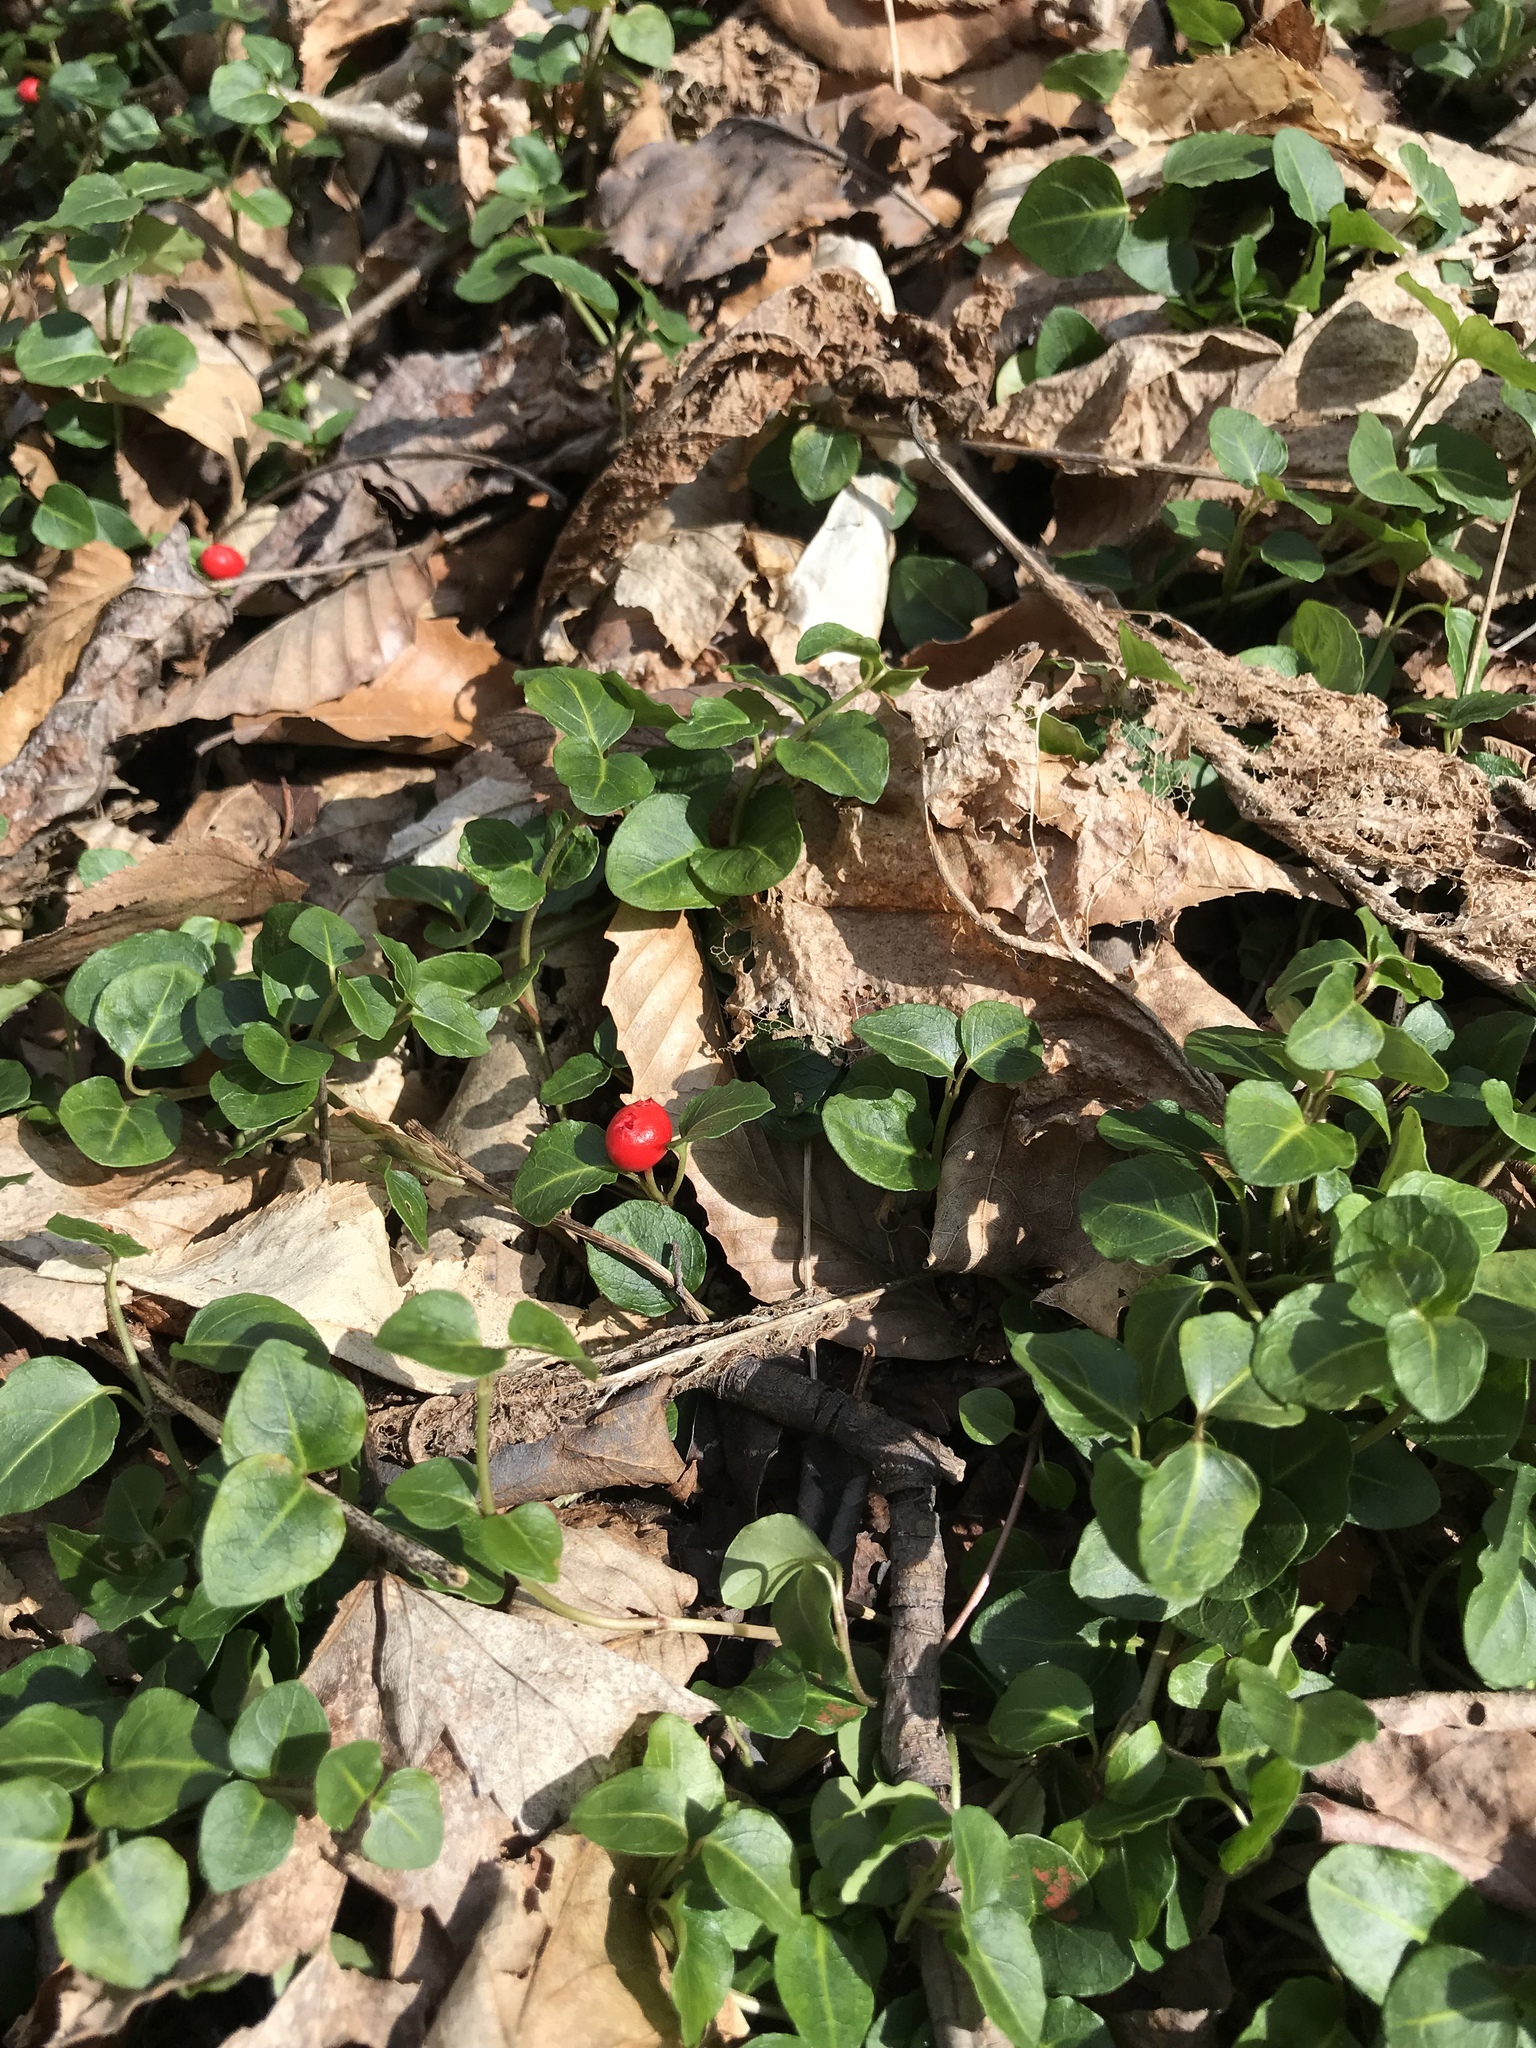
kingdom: Plantae
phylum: Tracheophyta
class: Magnoliopsida
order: Gentianales
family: Rubiaceae
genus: Mitchella
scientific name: Mitchella repens
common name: Partridge-berry
